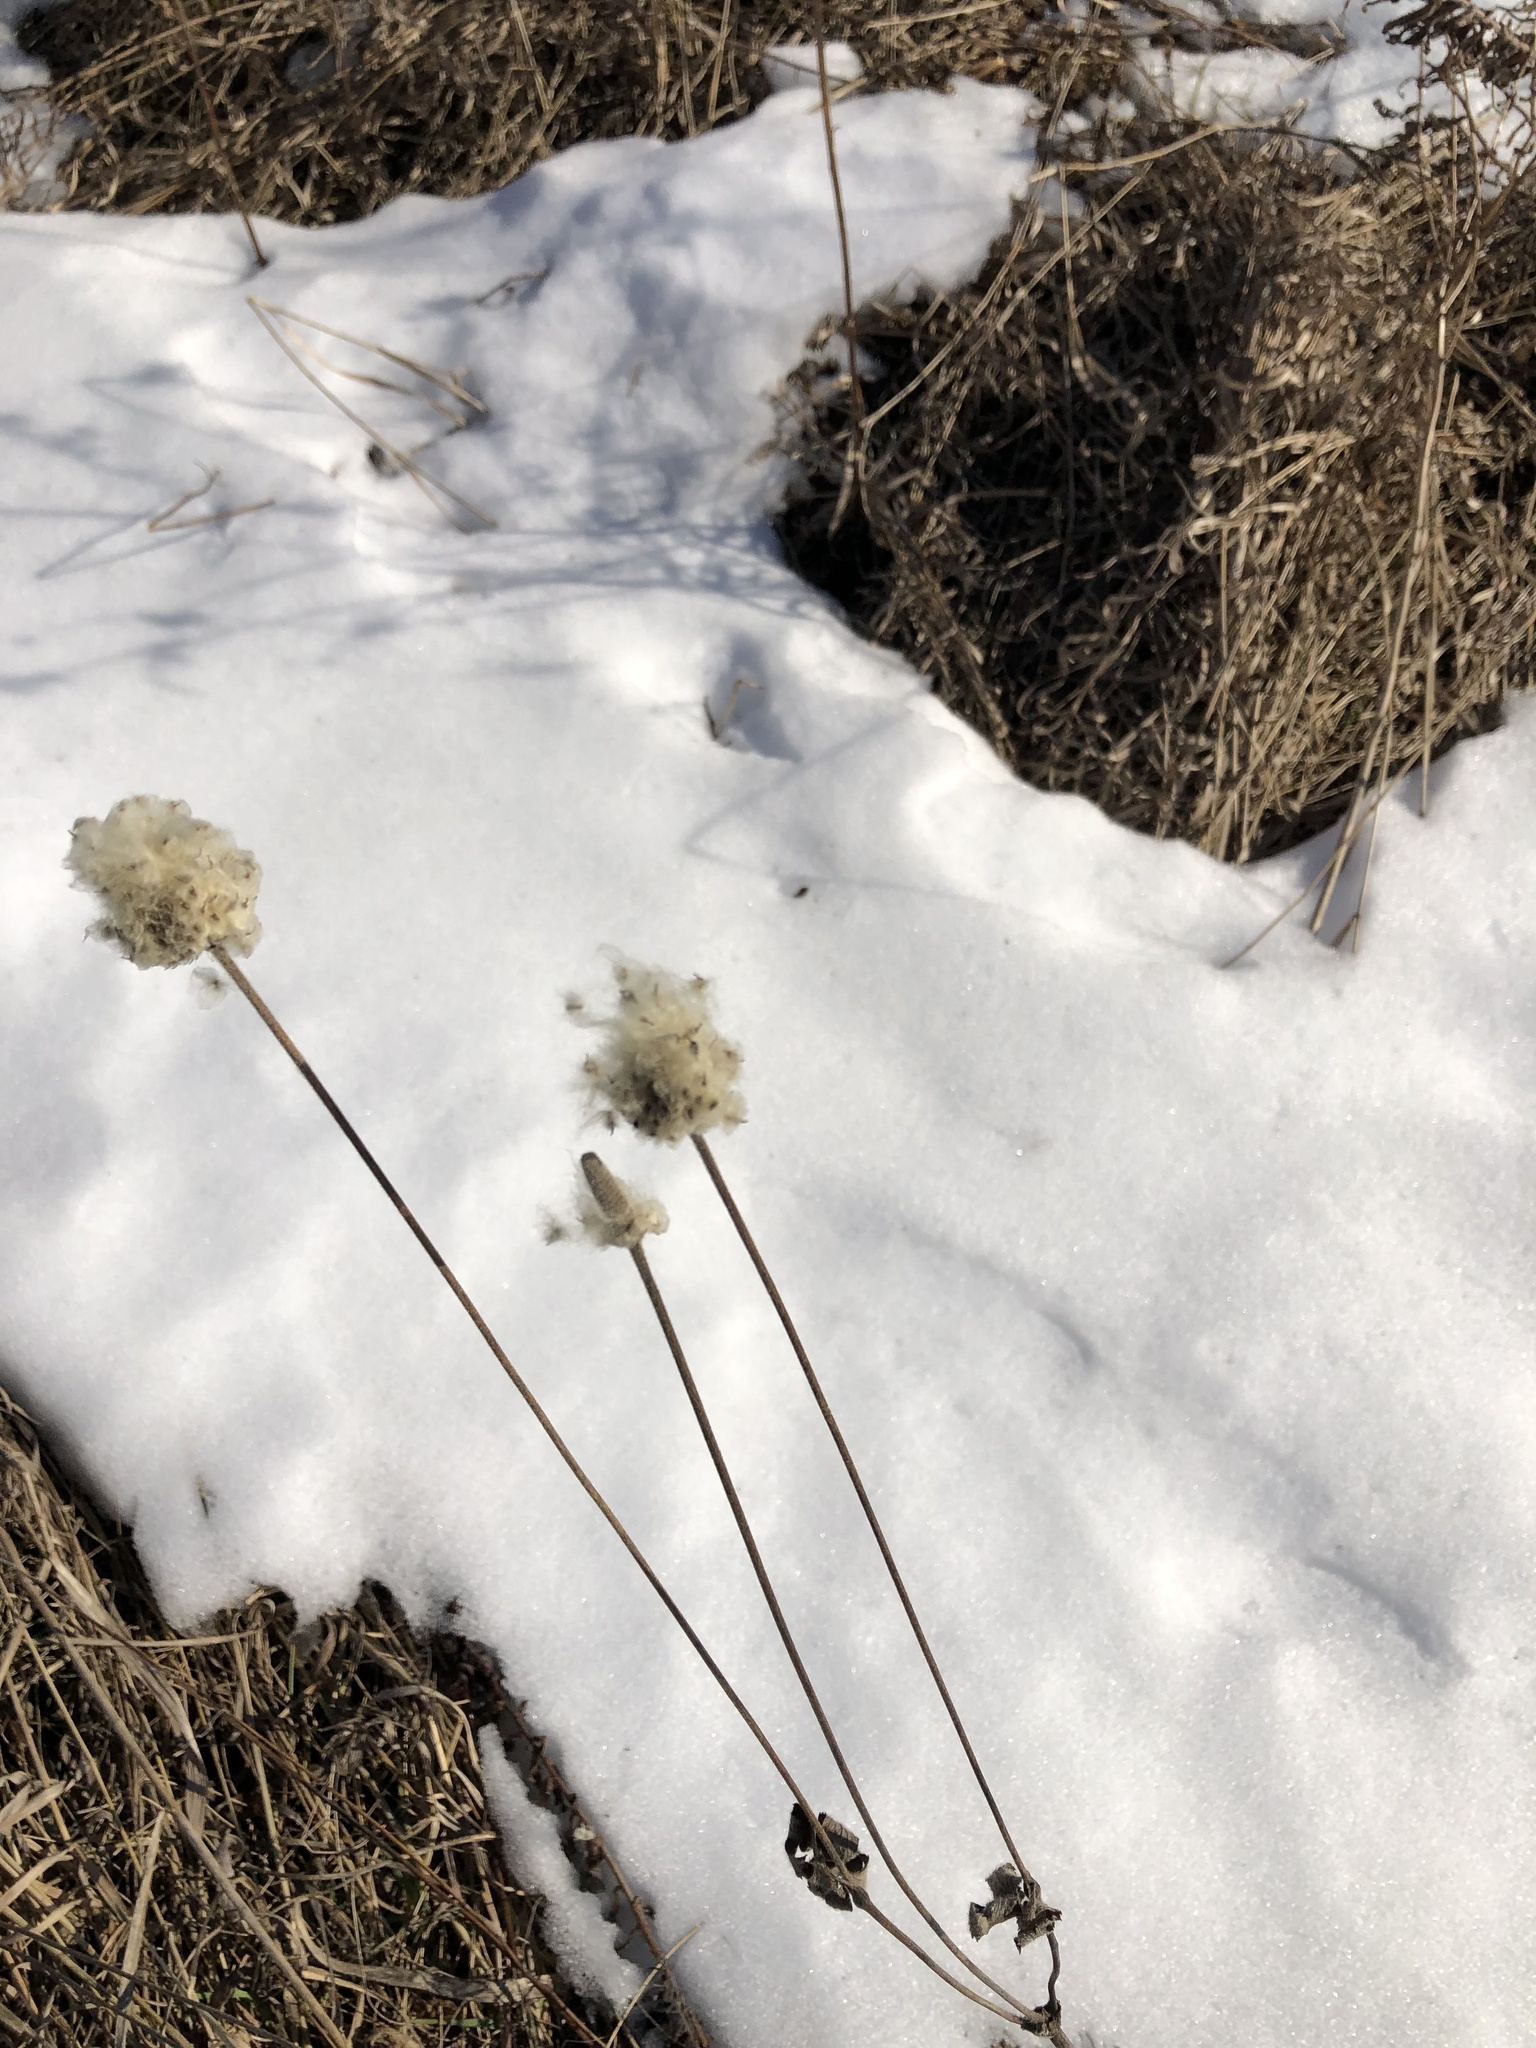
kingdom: Plantae
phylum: Tracheophyta
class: Magnoliopsida
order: Ranunculales
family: Ranunculaceae
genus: Anemone
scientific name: Anemone virginiana
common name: Tall anemone
